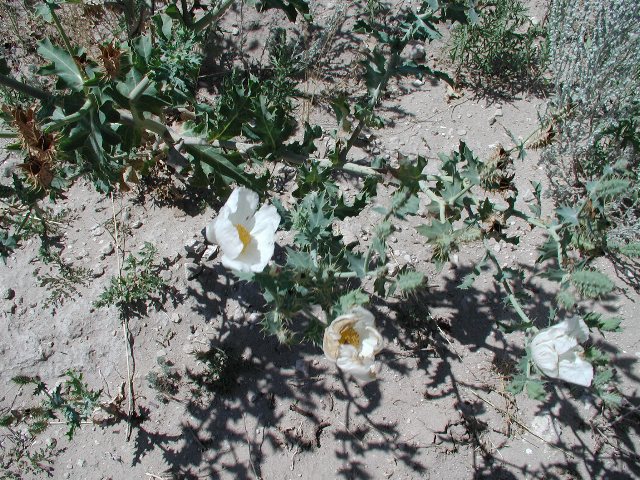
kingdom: Plantae
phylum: Tracheophyta
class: Magnoliopsida
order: Ranunculales
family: Papaveraceae
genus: Argemone
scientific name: Argemone polyanthemos
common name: Plains prickly-poppy
